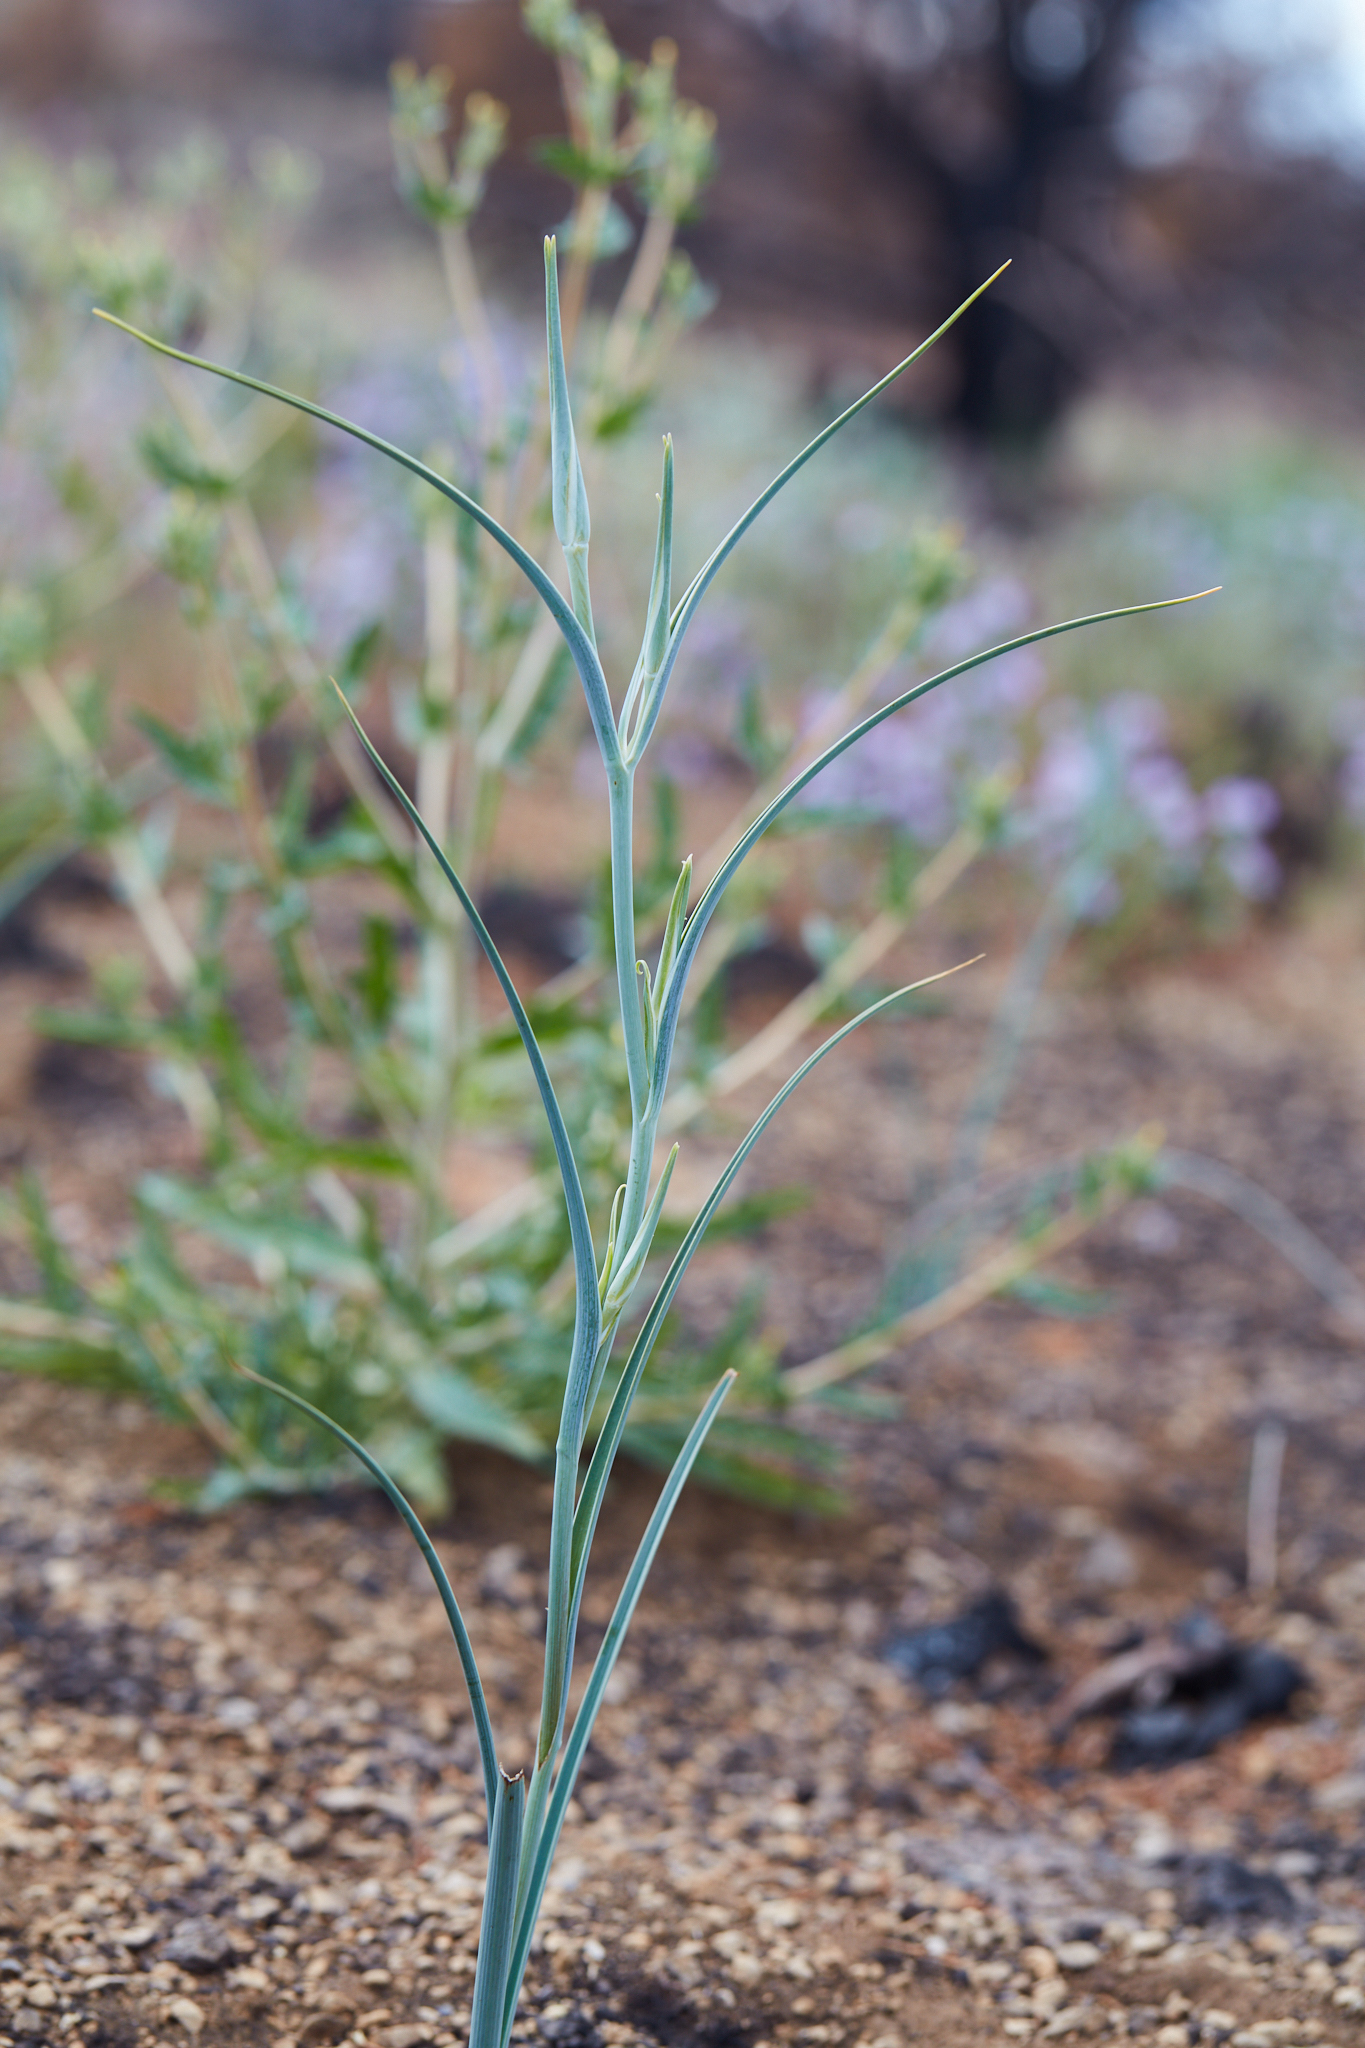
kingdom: Plantae
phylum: Tracheophyta
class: Liliopsida
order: Liliales
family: Liliaceae
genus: Calochortus
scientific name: Calochortus macrocarpus
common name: Green-band mariposa lily
